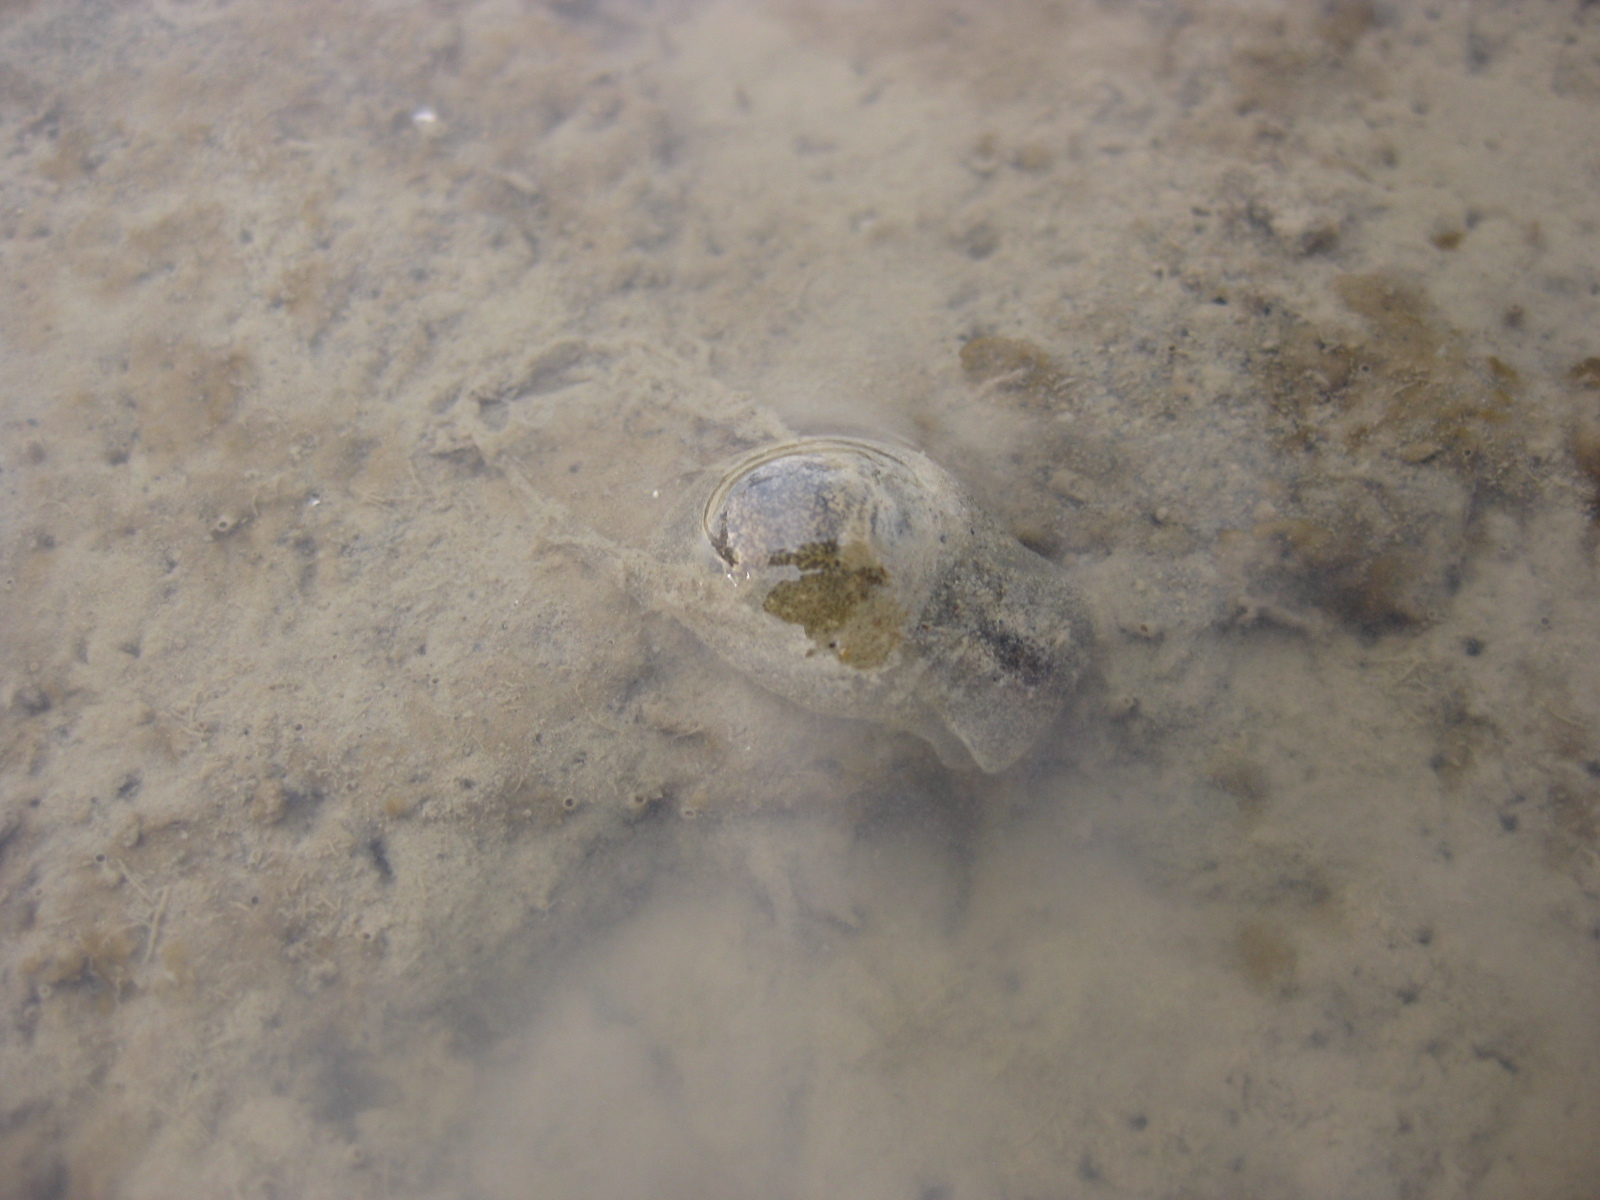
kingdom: Animalia
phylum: Mollusca
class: Gastropoda
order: Cephalaspidea
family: Haminoeidae
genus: Papawera
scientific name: Papawera zelandiae
